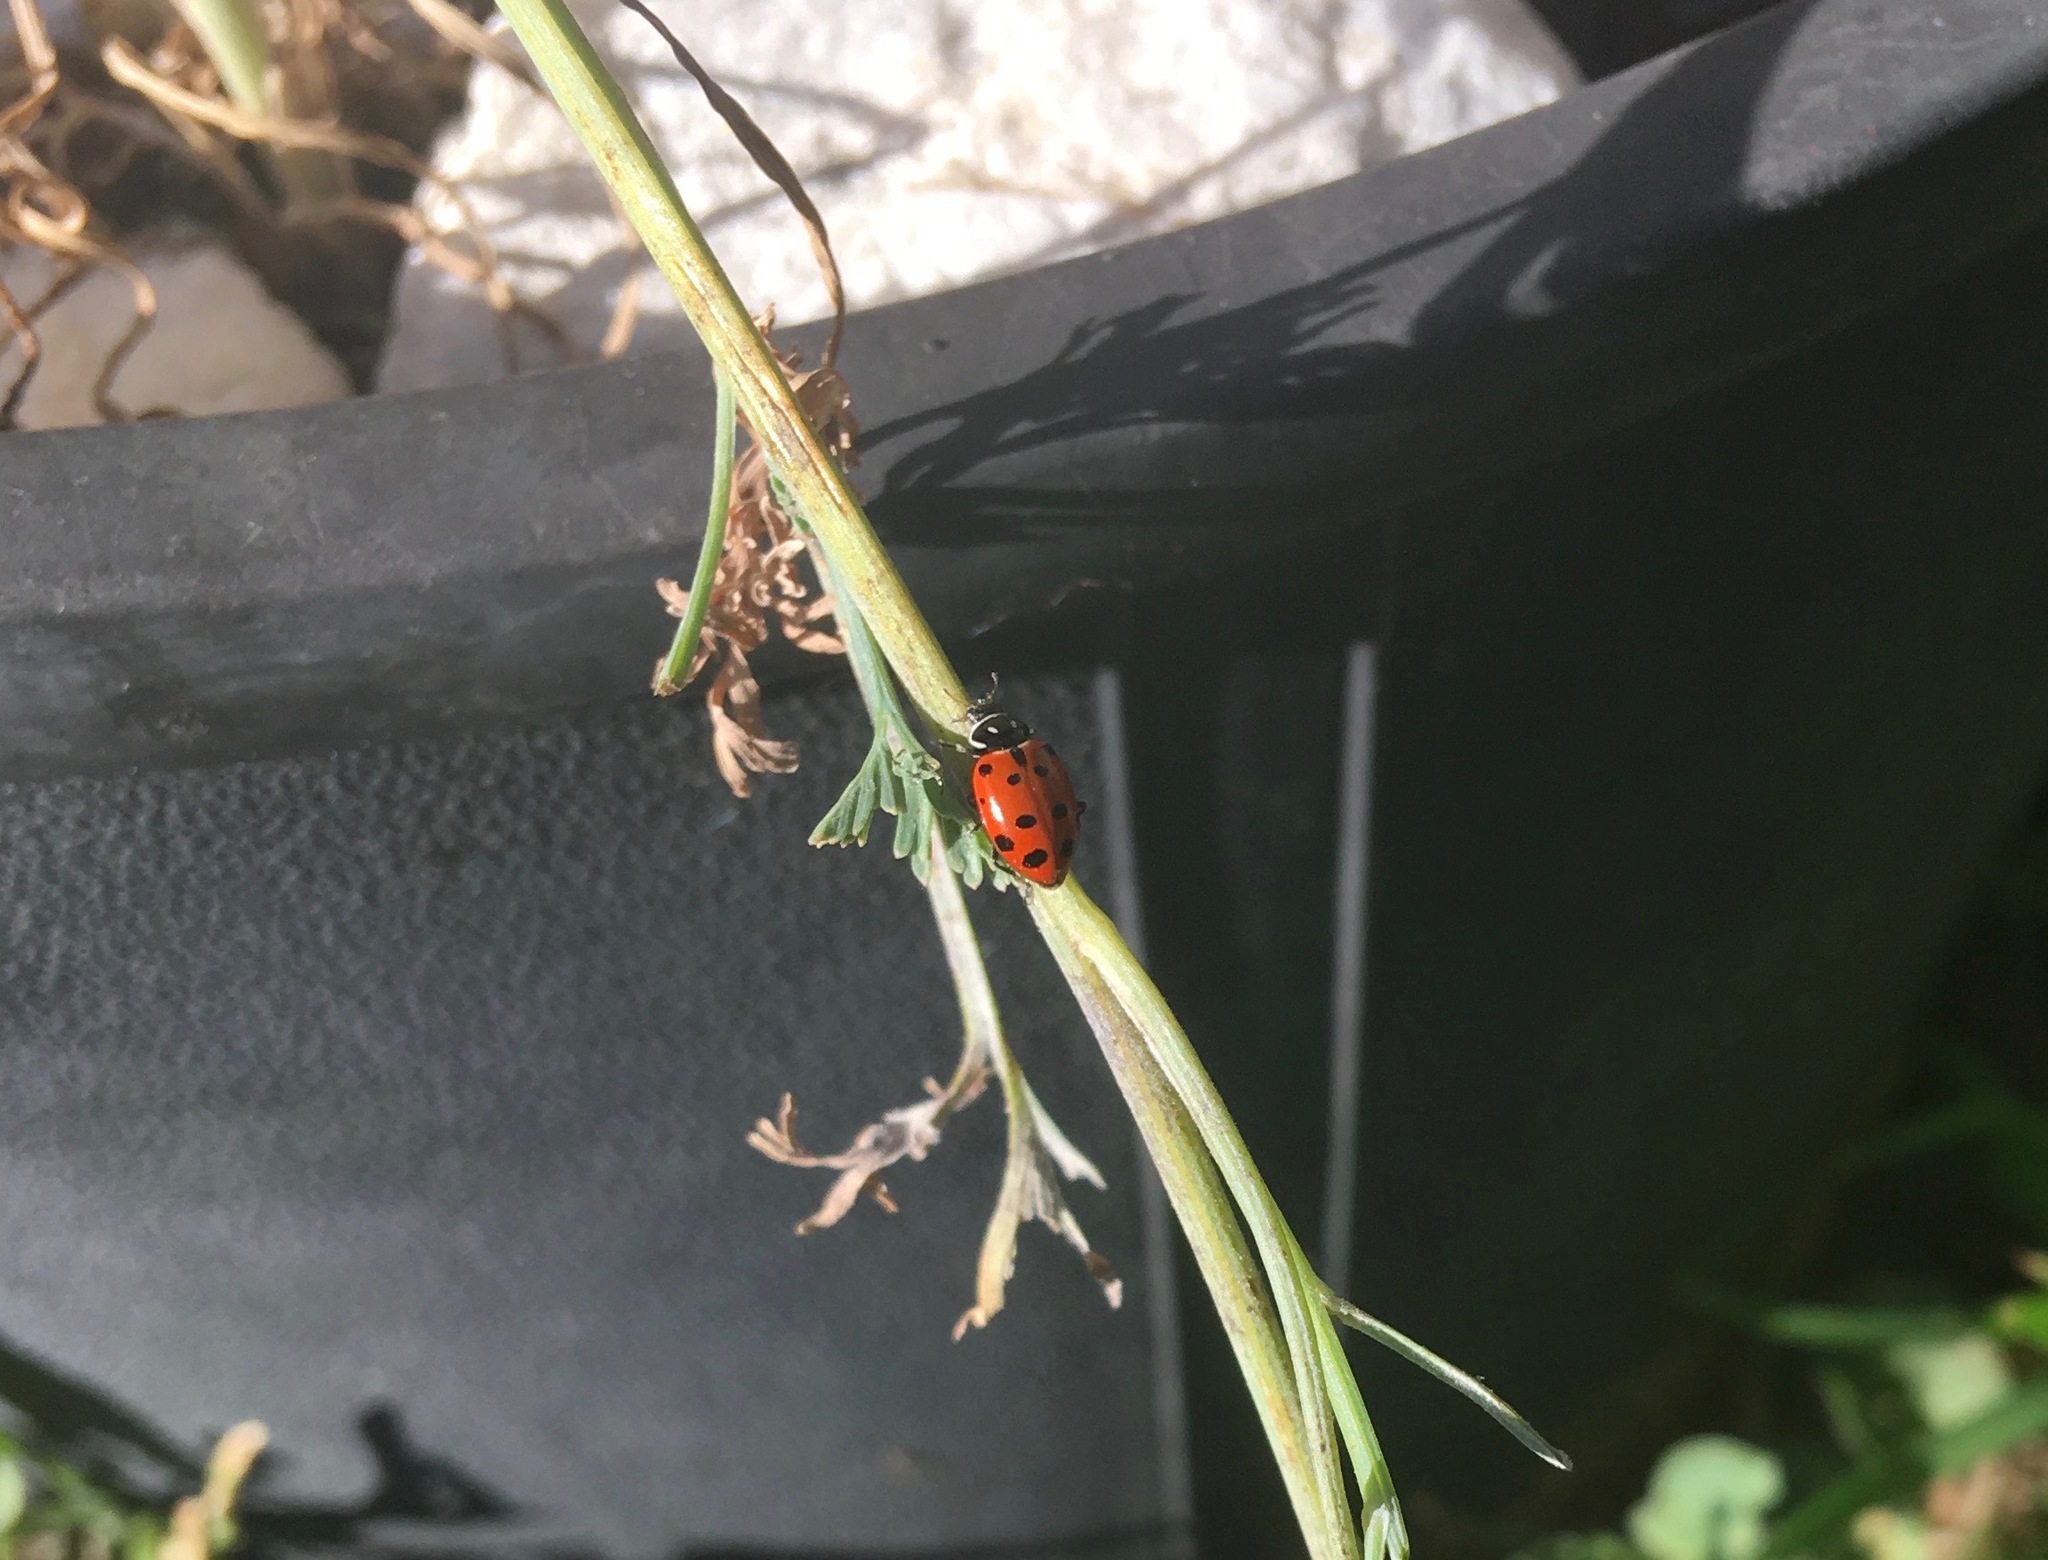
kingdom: Animalia
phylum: Arthropoda
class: Insecta
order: Coleoptera
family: Coccinellidae
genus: Hippodamia
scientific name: Hippodamia convergens
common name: Convergent lady beetle
